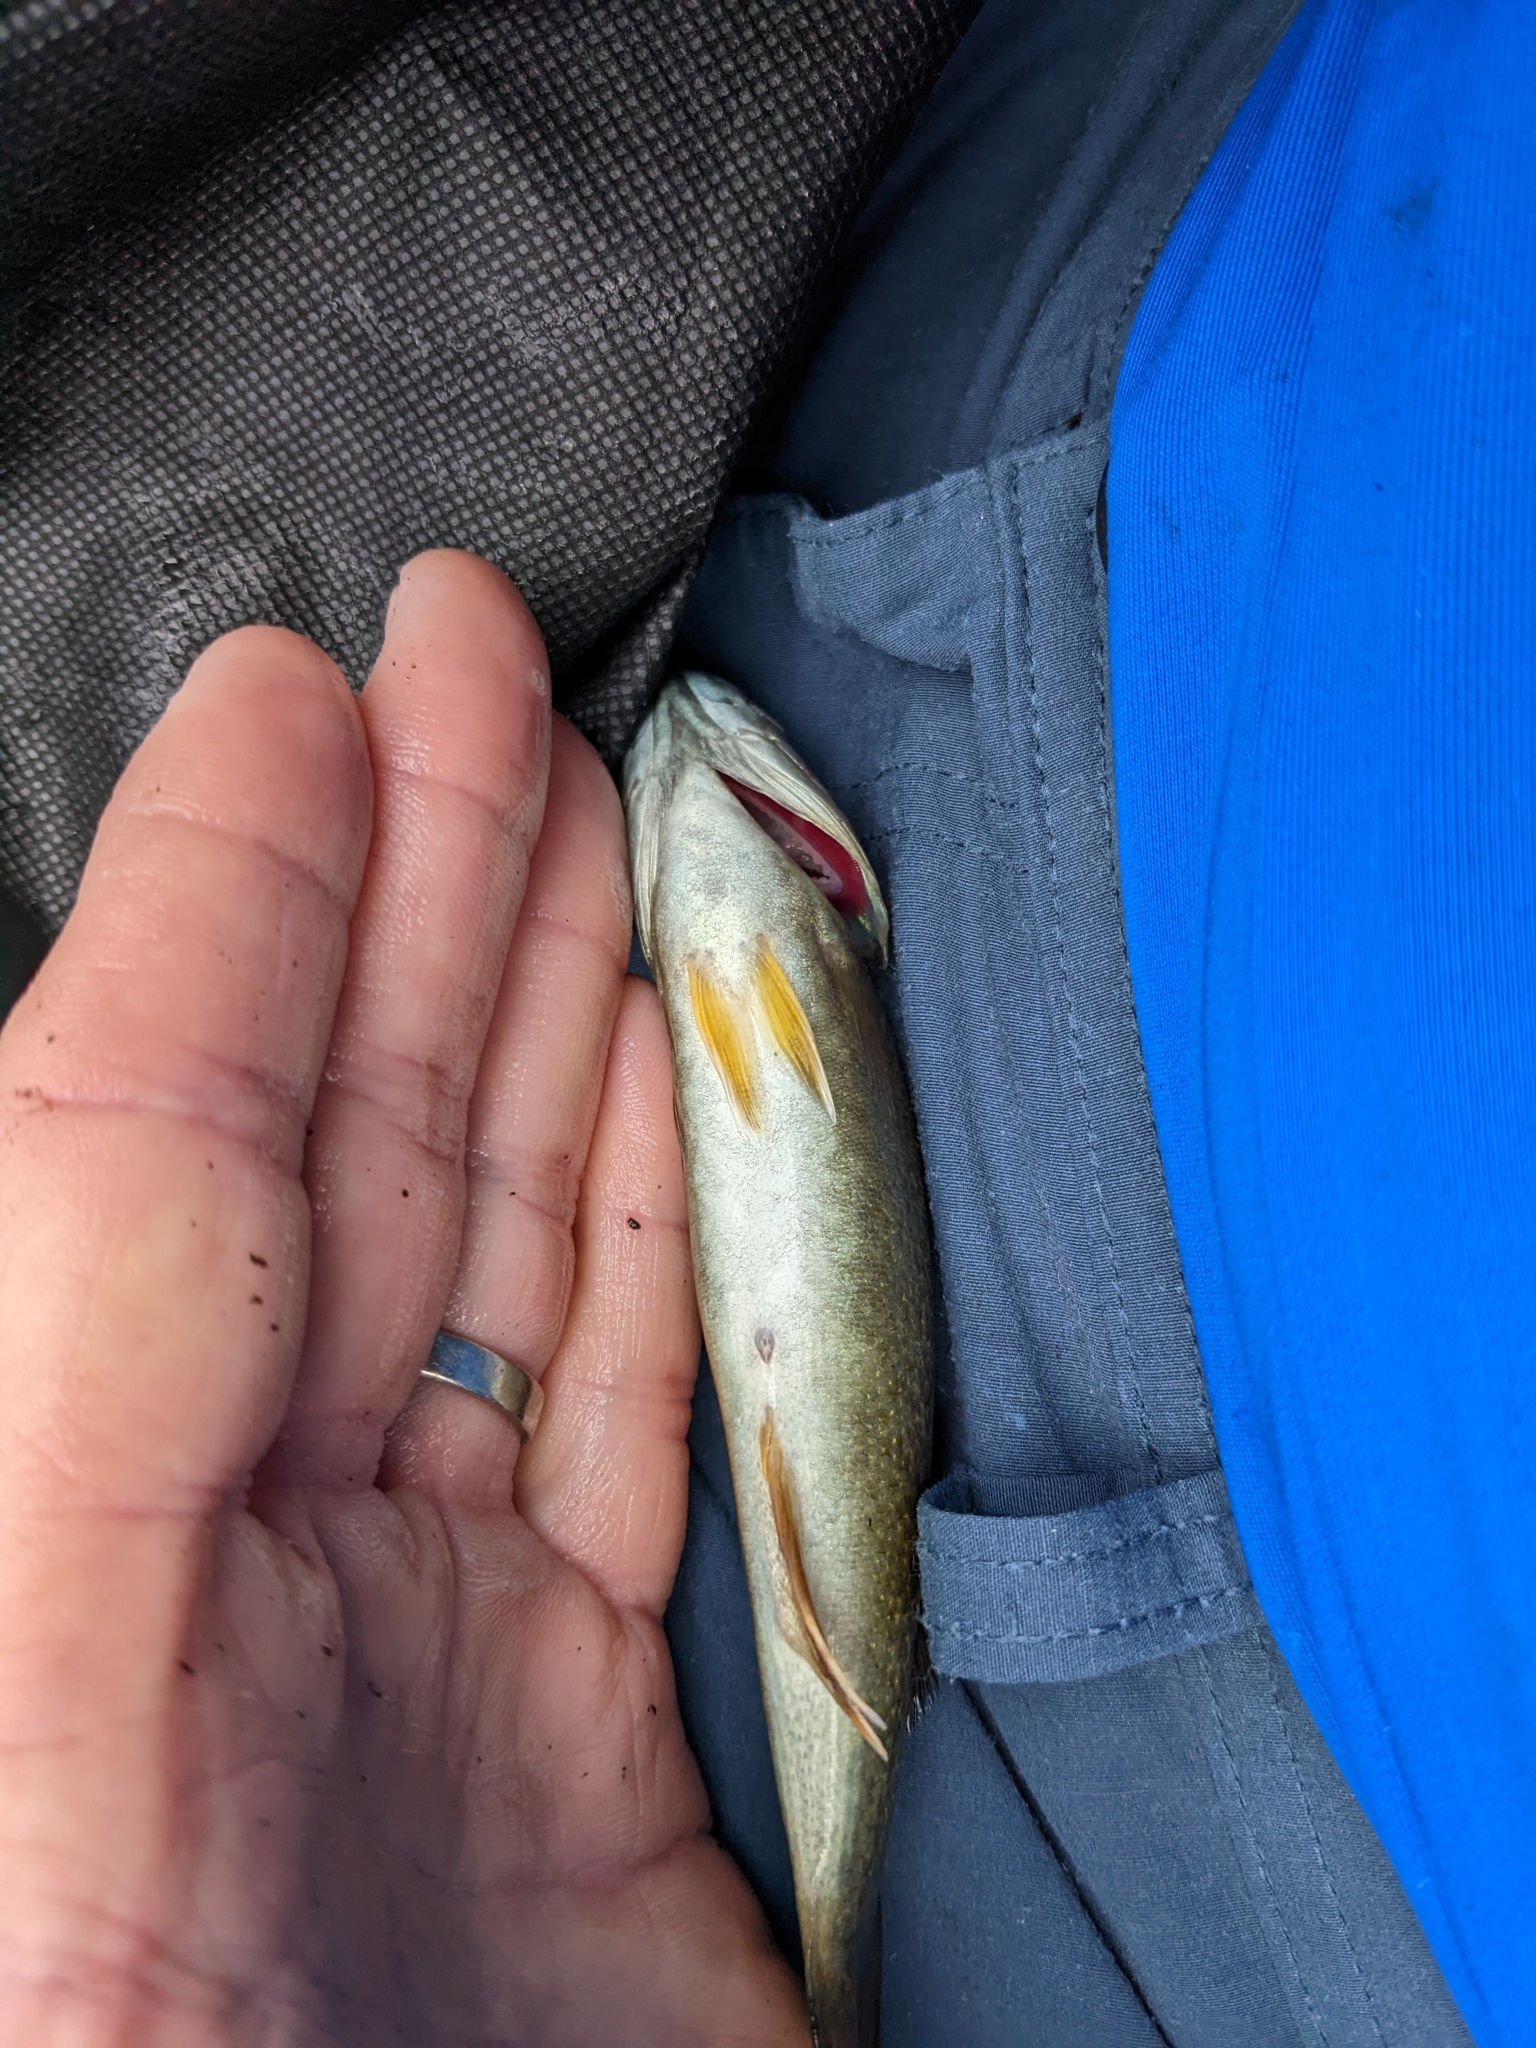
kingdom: Animalia
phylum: Chordata
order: Perciformes
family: Centrarchidae
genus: Micropterus
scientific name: Micropterus dolomieu
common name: Smallmouth bass
